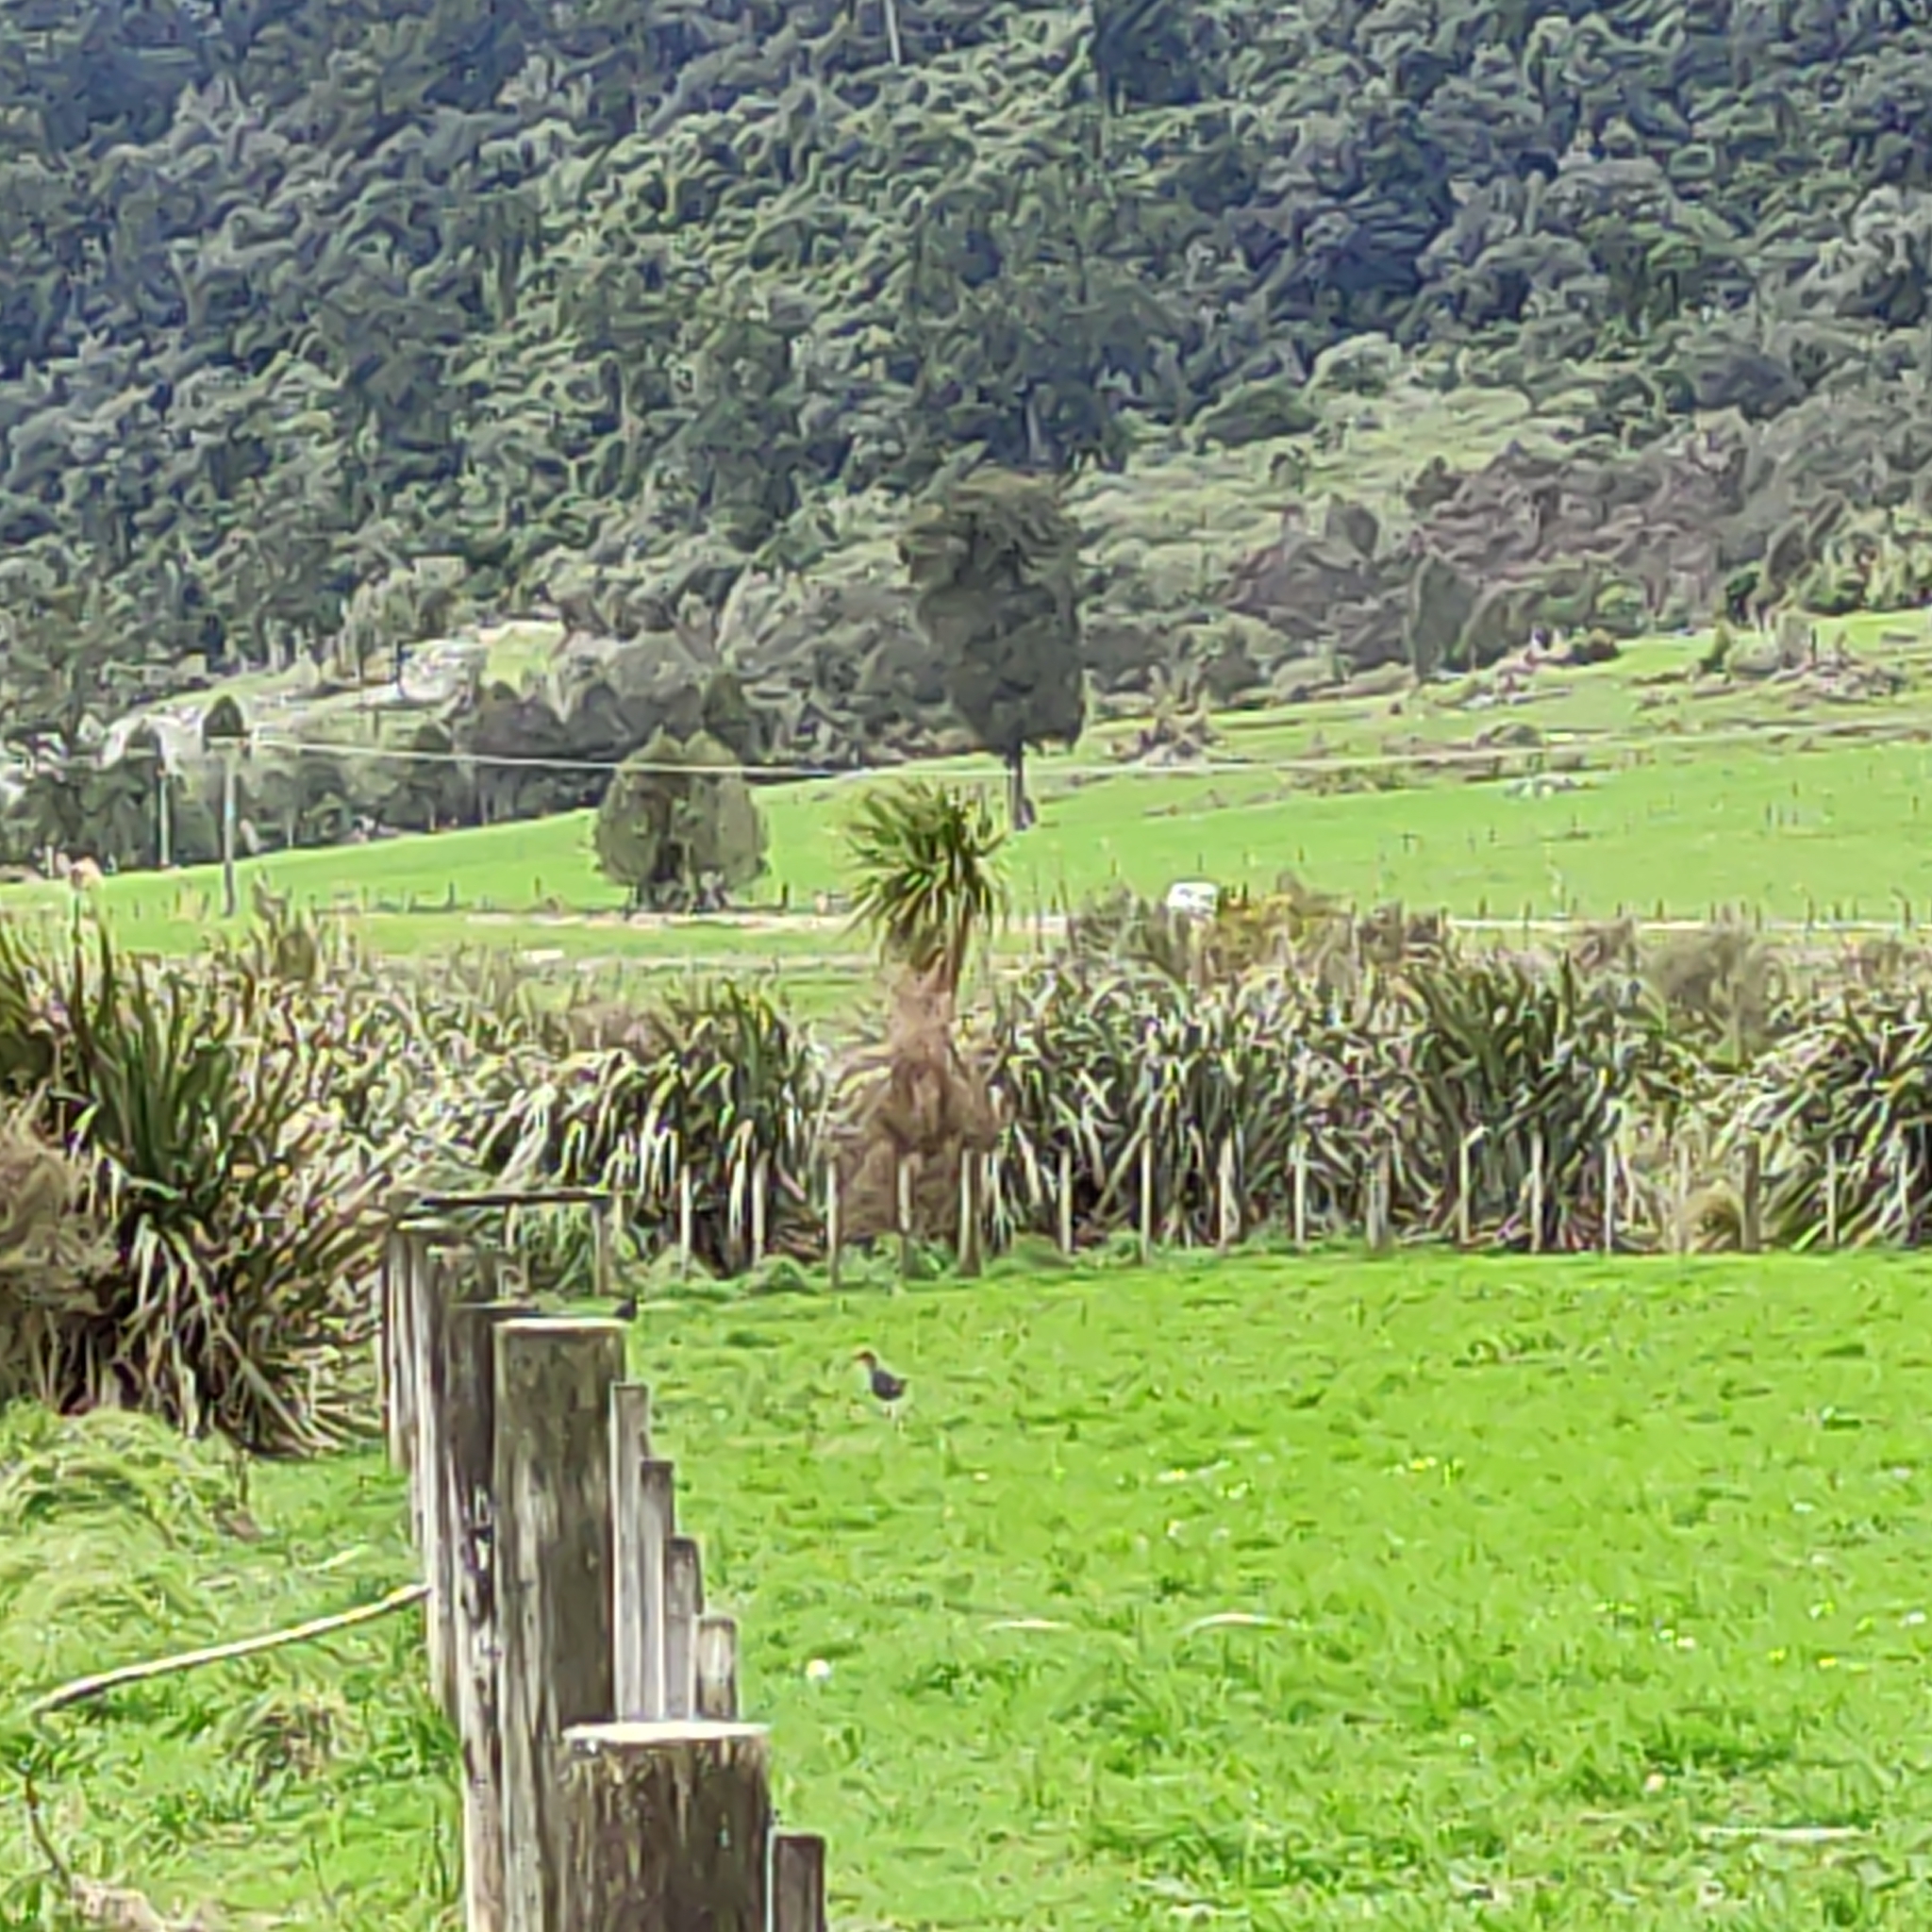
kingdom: Animalia
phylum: Chordata
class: Aves
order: Gruiformes
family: Rallidae
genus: Porphyrio
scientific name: Porphyrio melanotus
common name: Australasian swamphen
